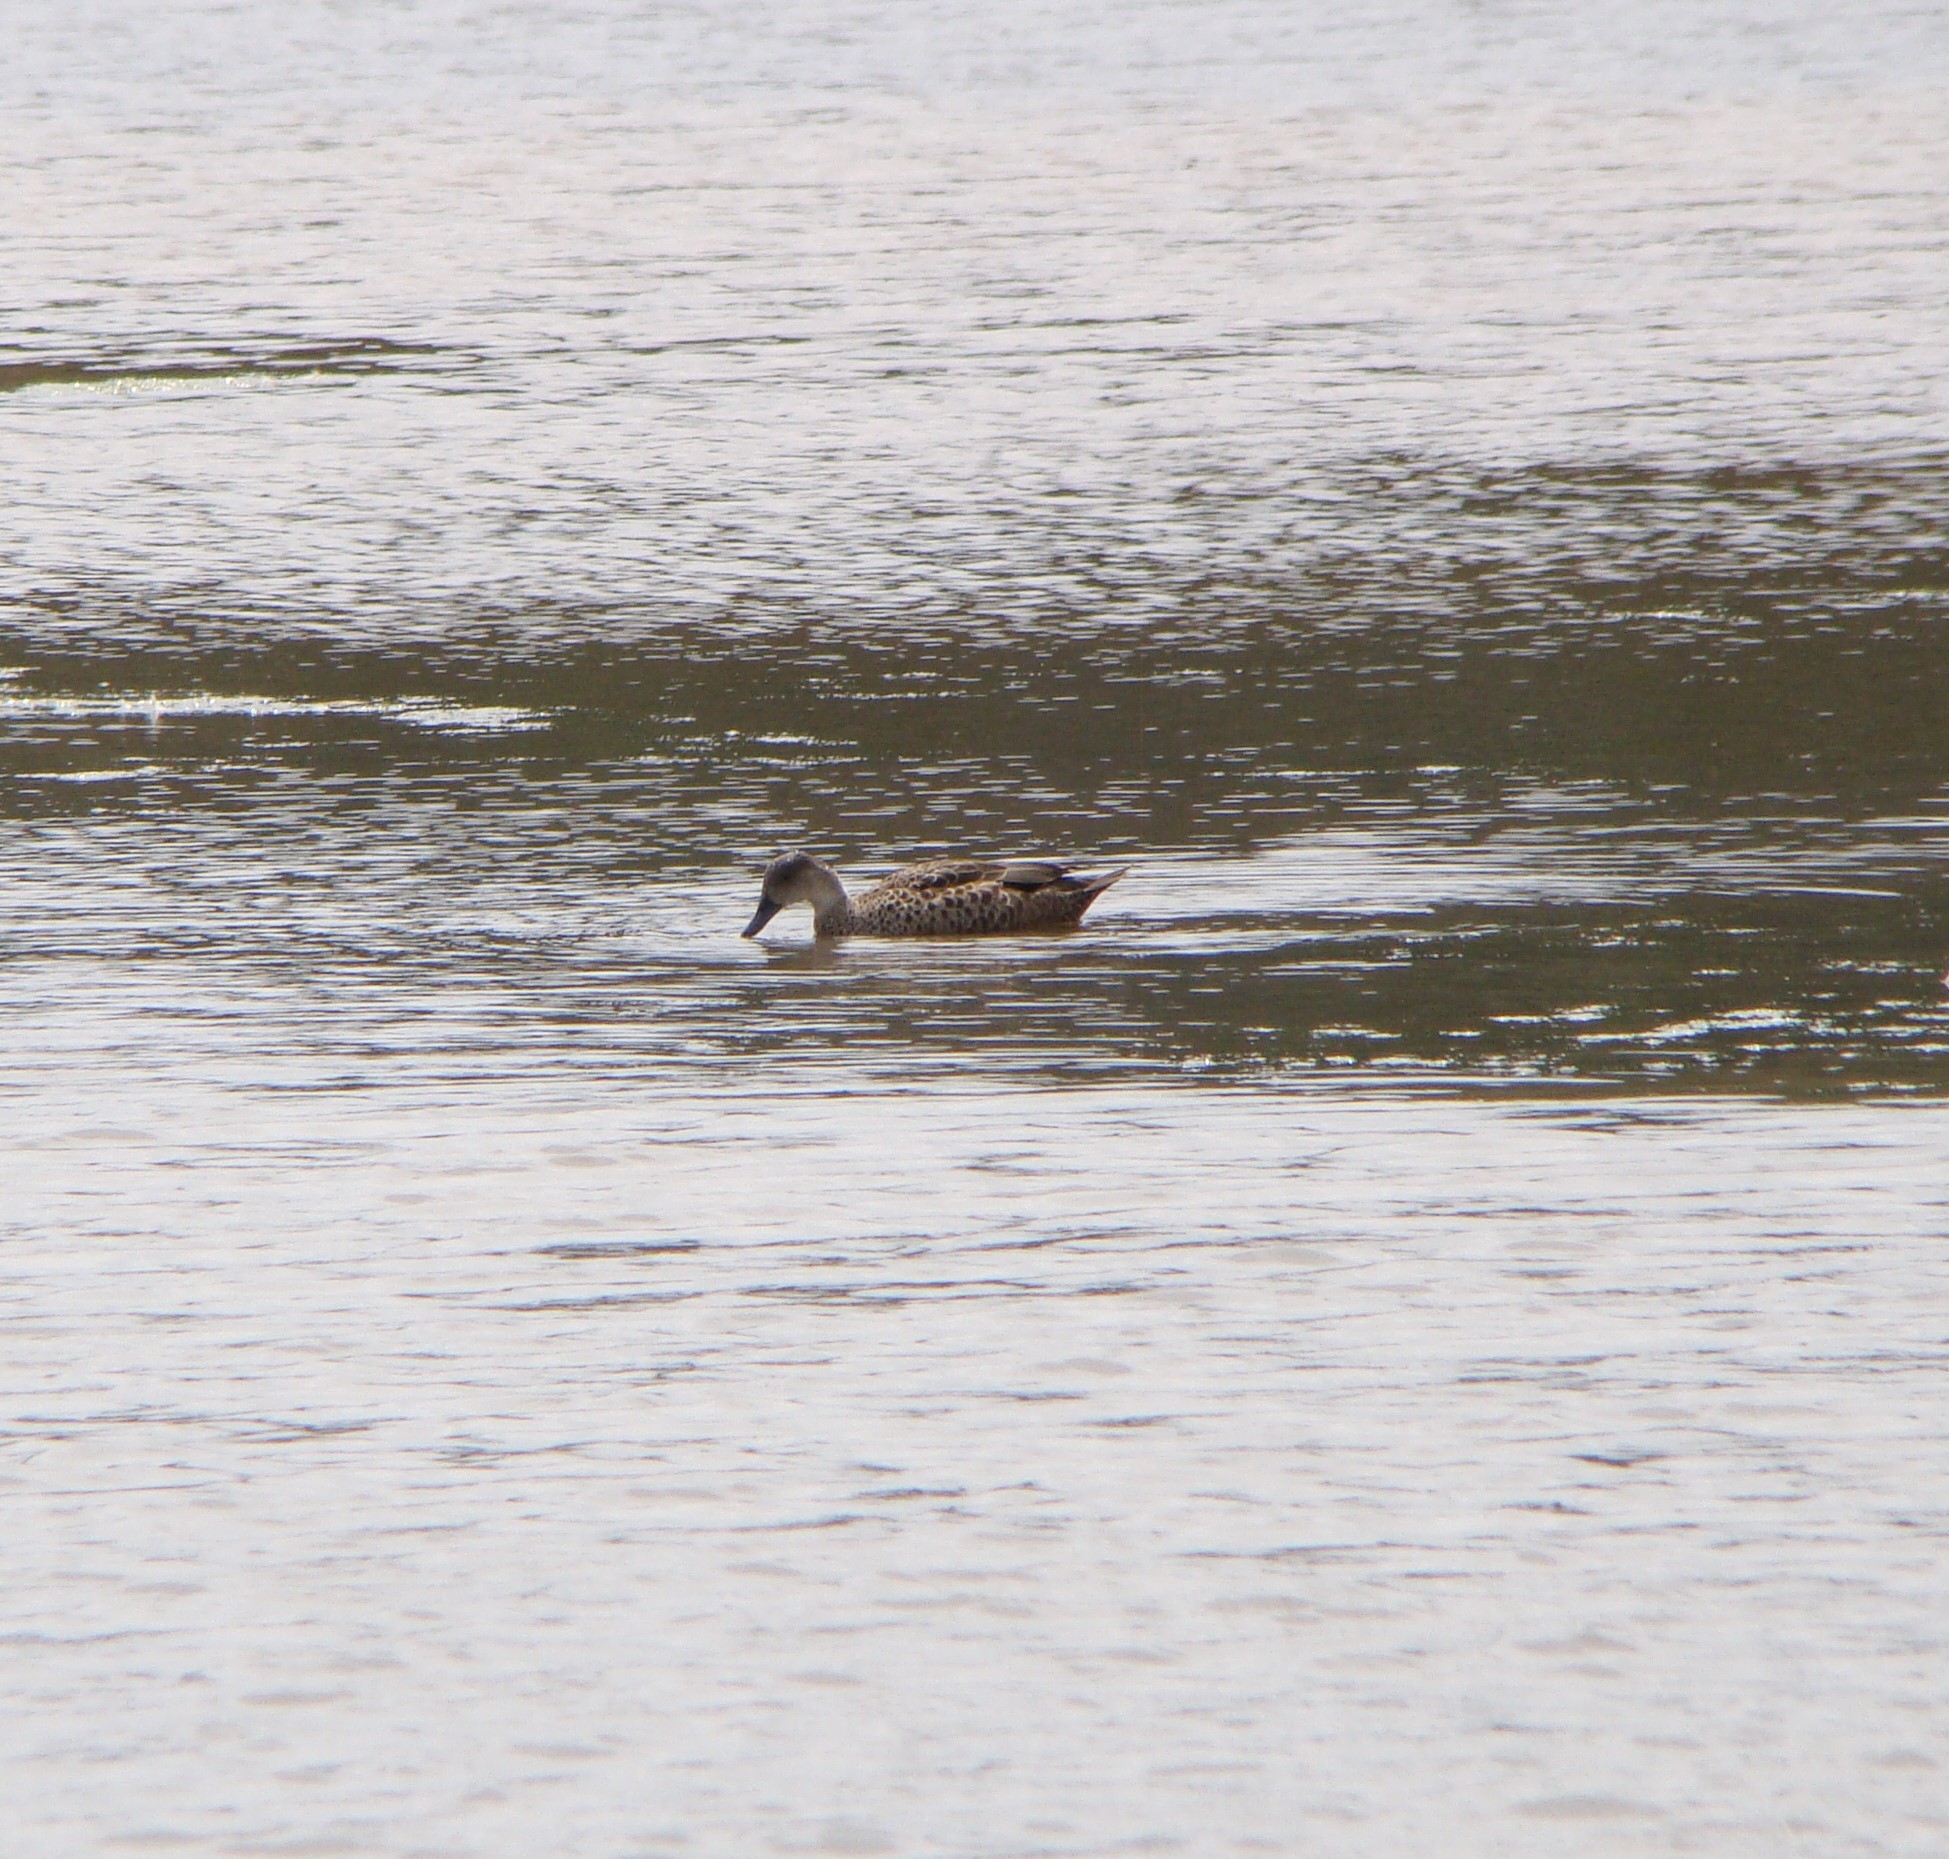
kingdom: Animalia
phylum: Chordata
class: Aves
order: Anseriformes
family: Anatidae
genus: Anas
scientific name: Anas gracilis
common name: Grey teal
